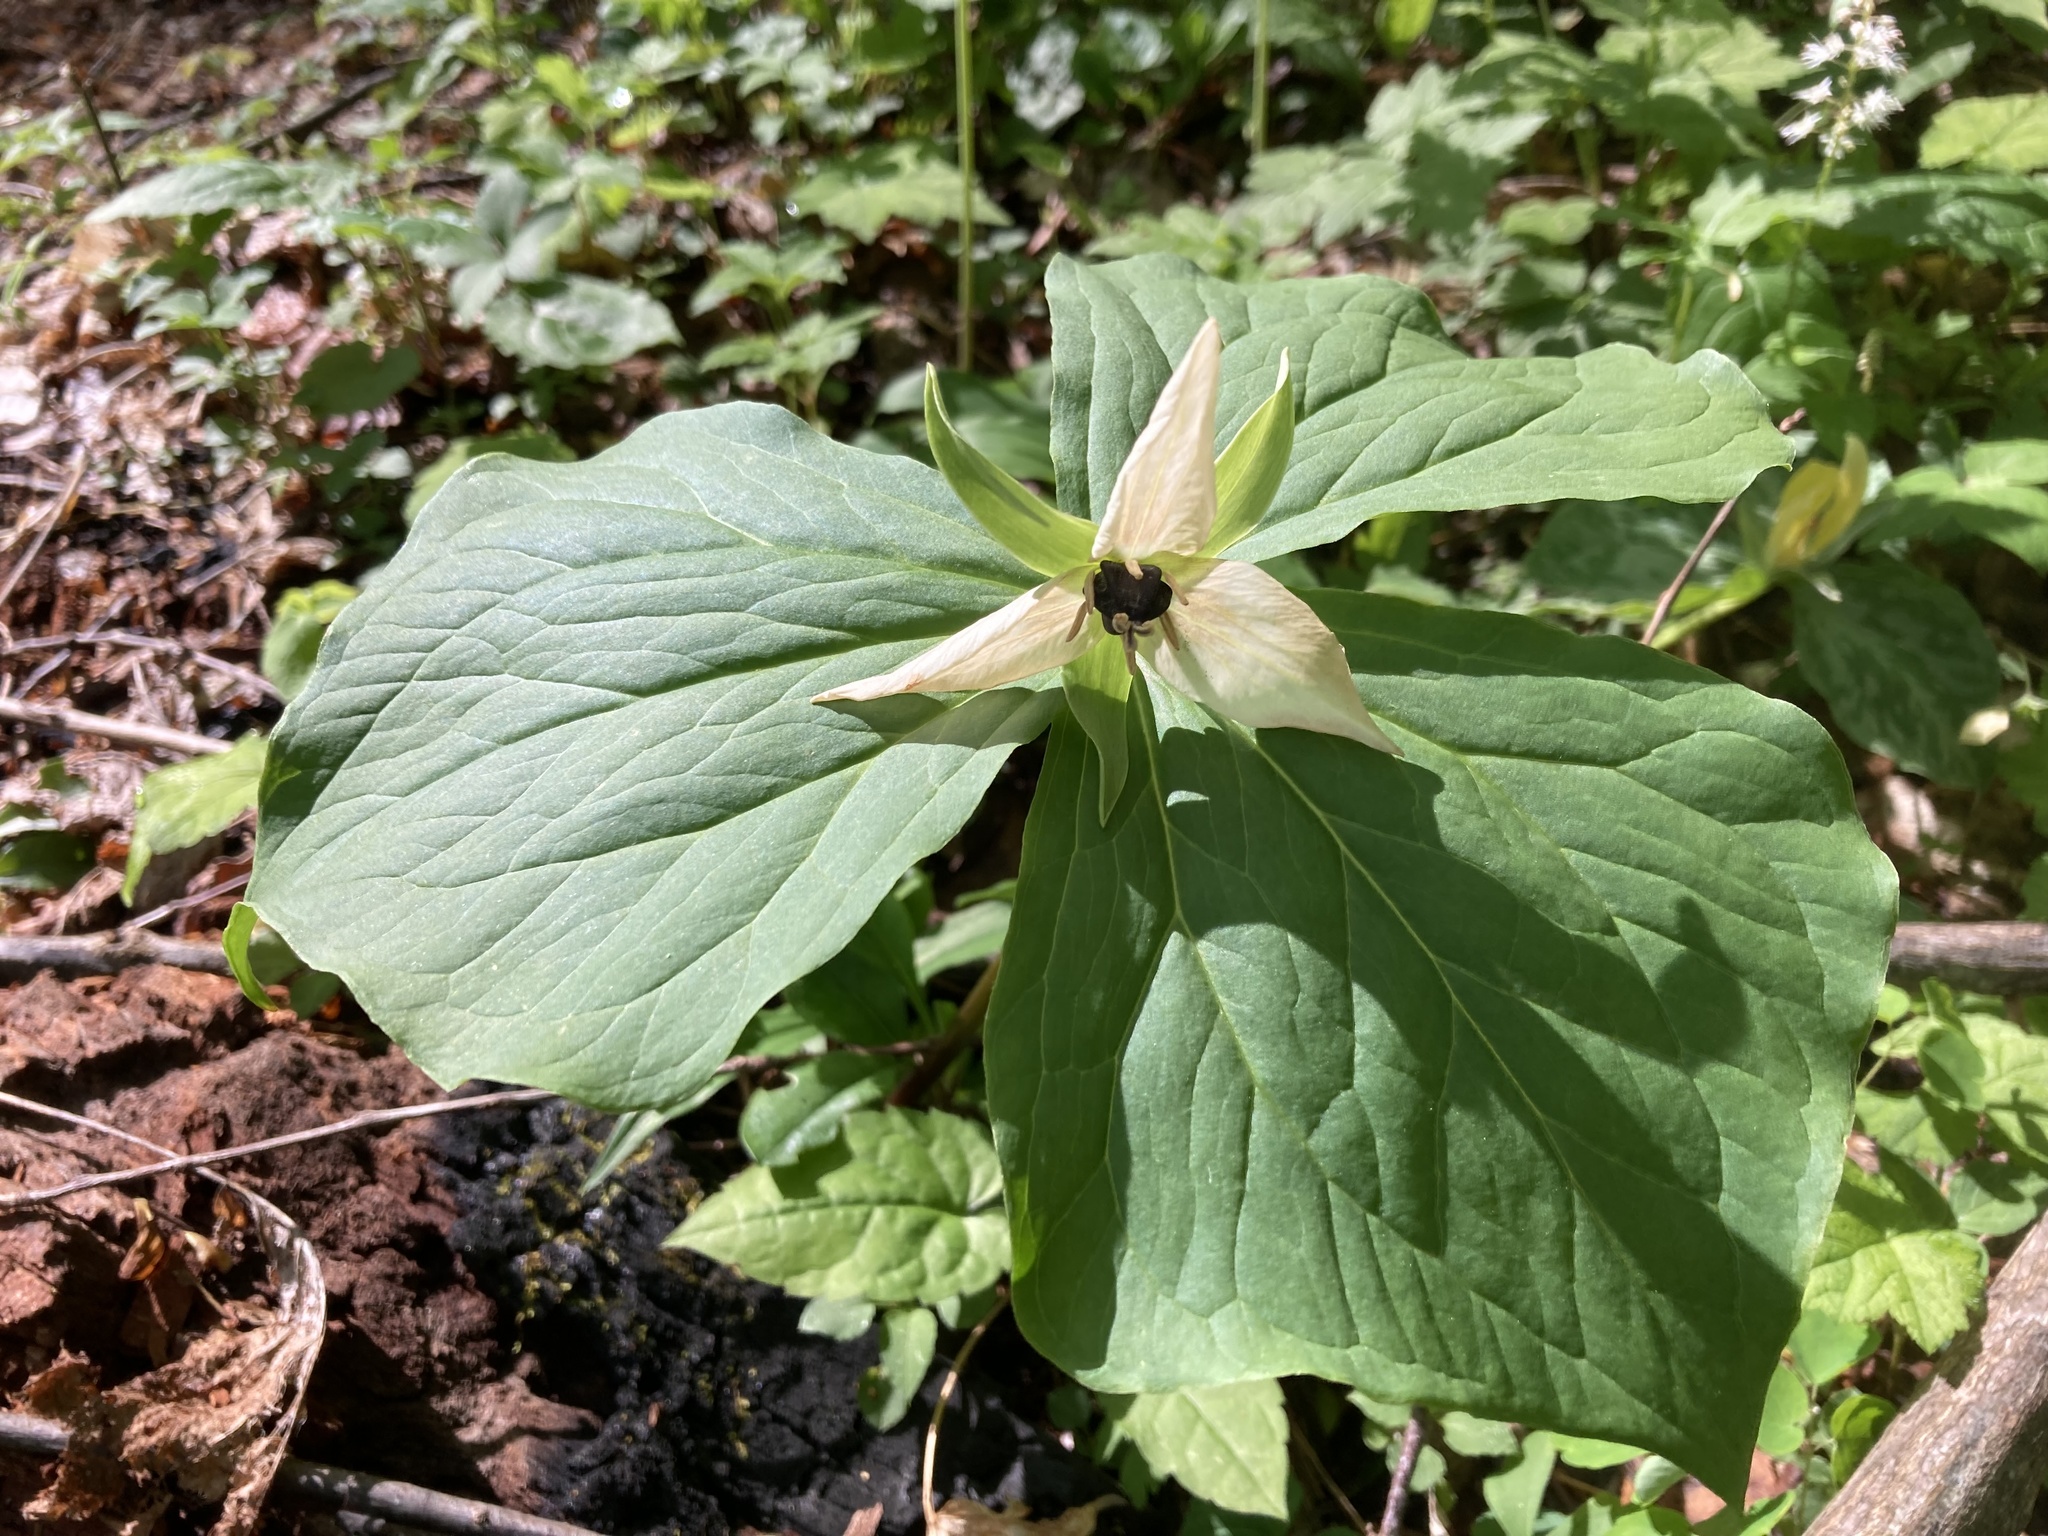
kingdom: Plantae
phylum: Tracheophyta
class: Liliopsida
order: Liliales
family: Melanthiaceae
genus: Trillium
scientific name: Trillium erectum
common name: Purple trillium
